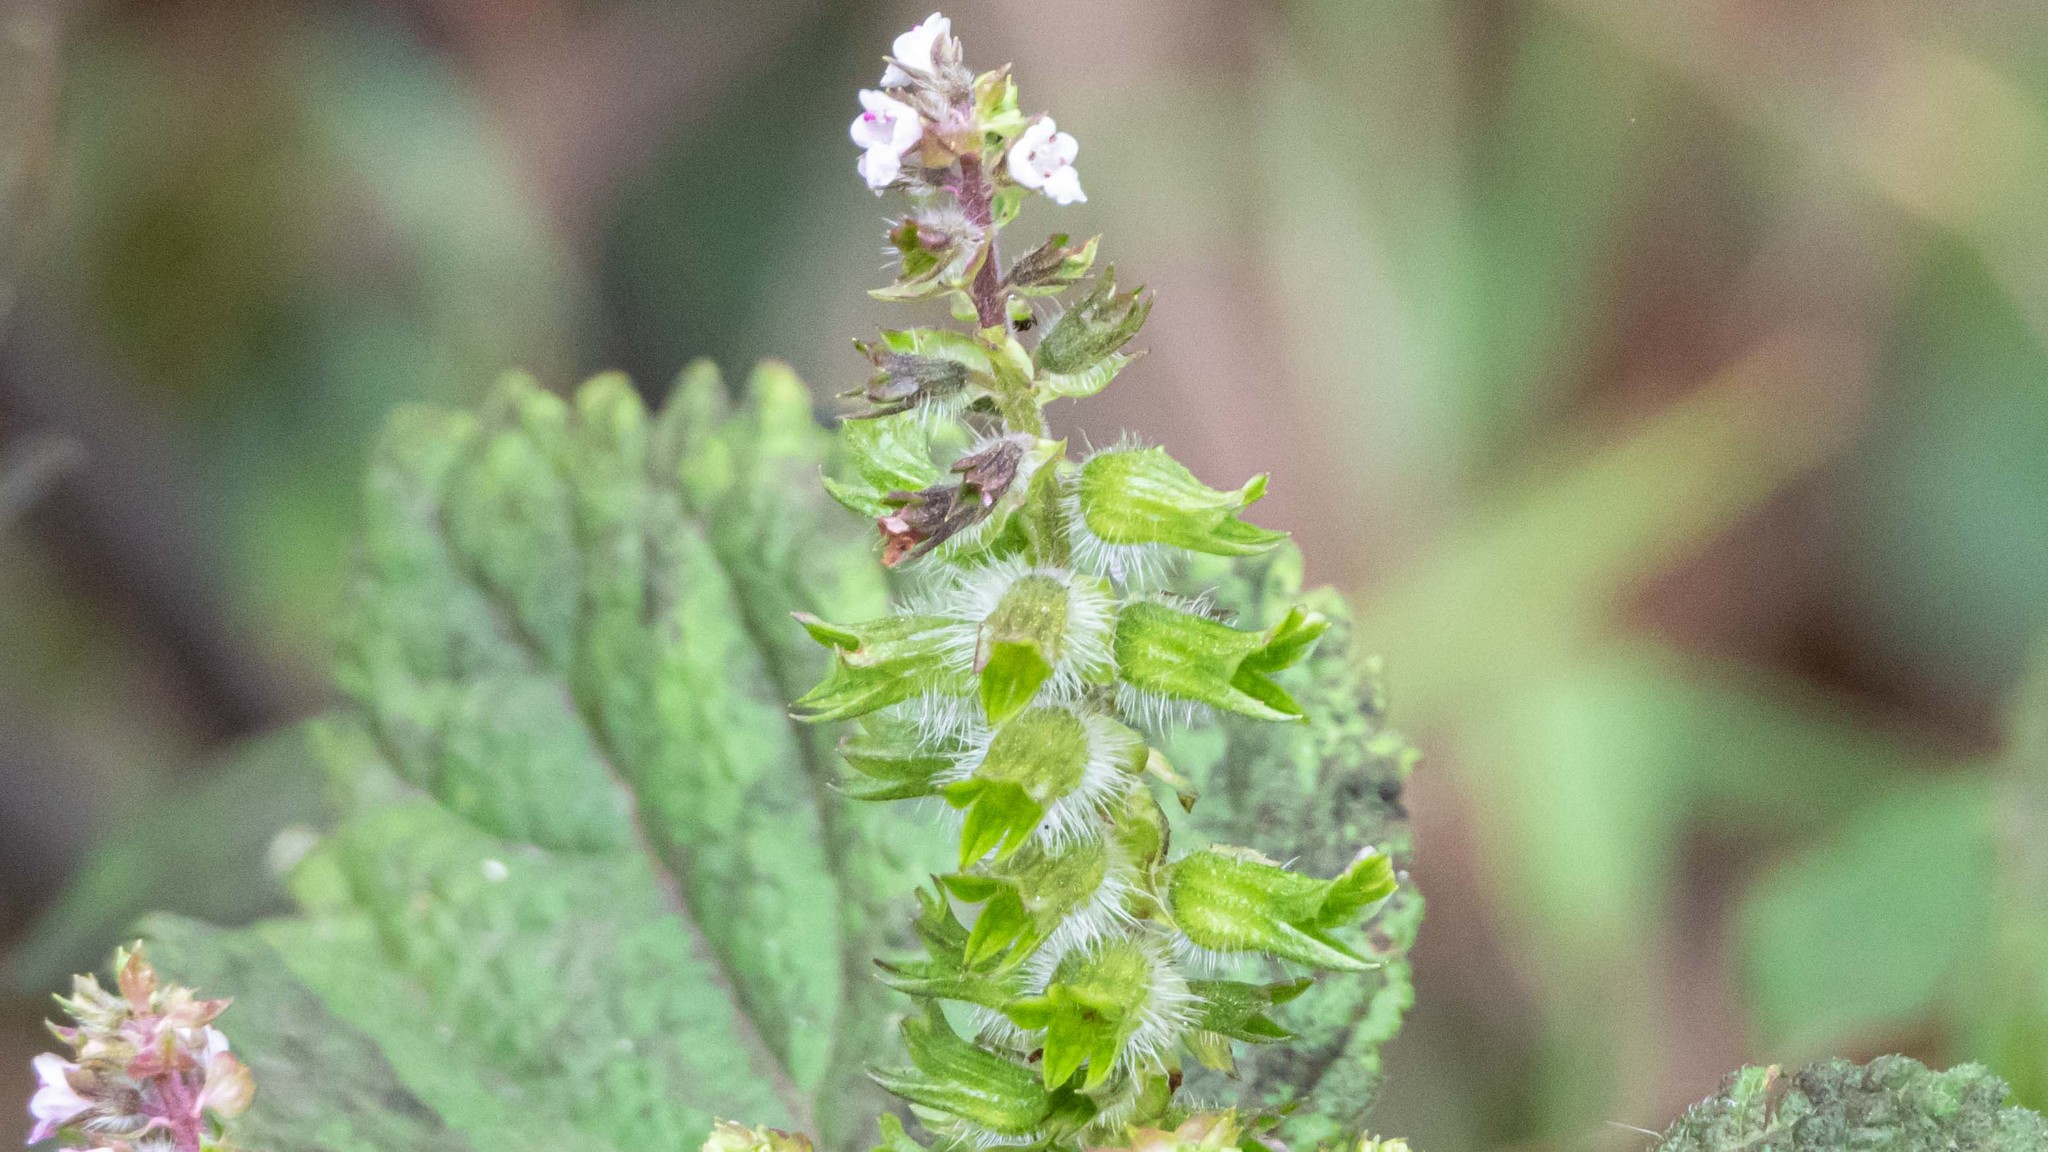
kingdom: Plantae
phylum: Tracheophyta
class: Magnoliopsida
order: Lamiales
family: Lamiaceae
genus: Perilla
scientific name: Perilla frutescens
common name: Perilla
